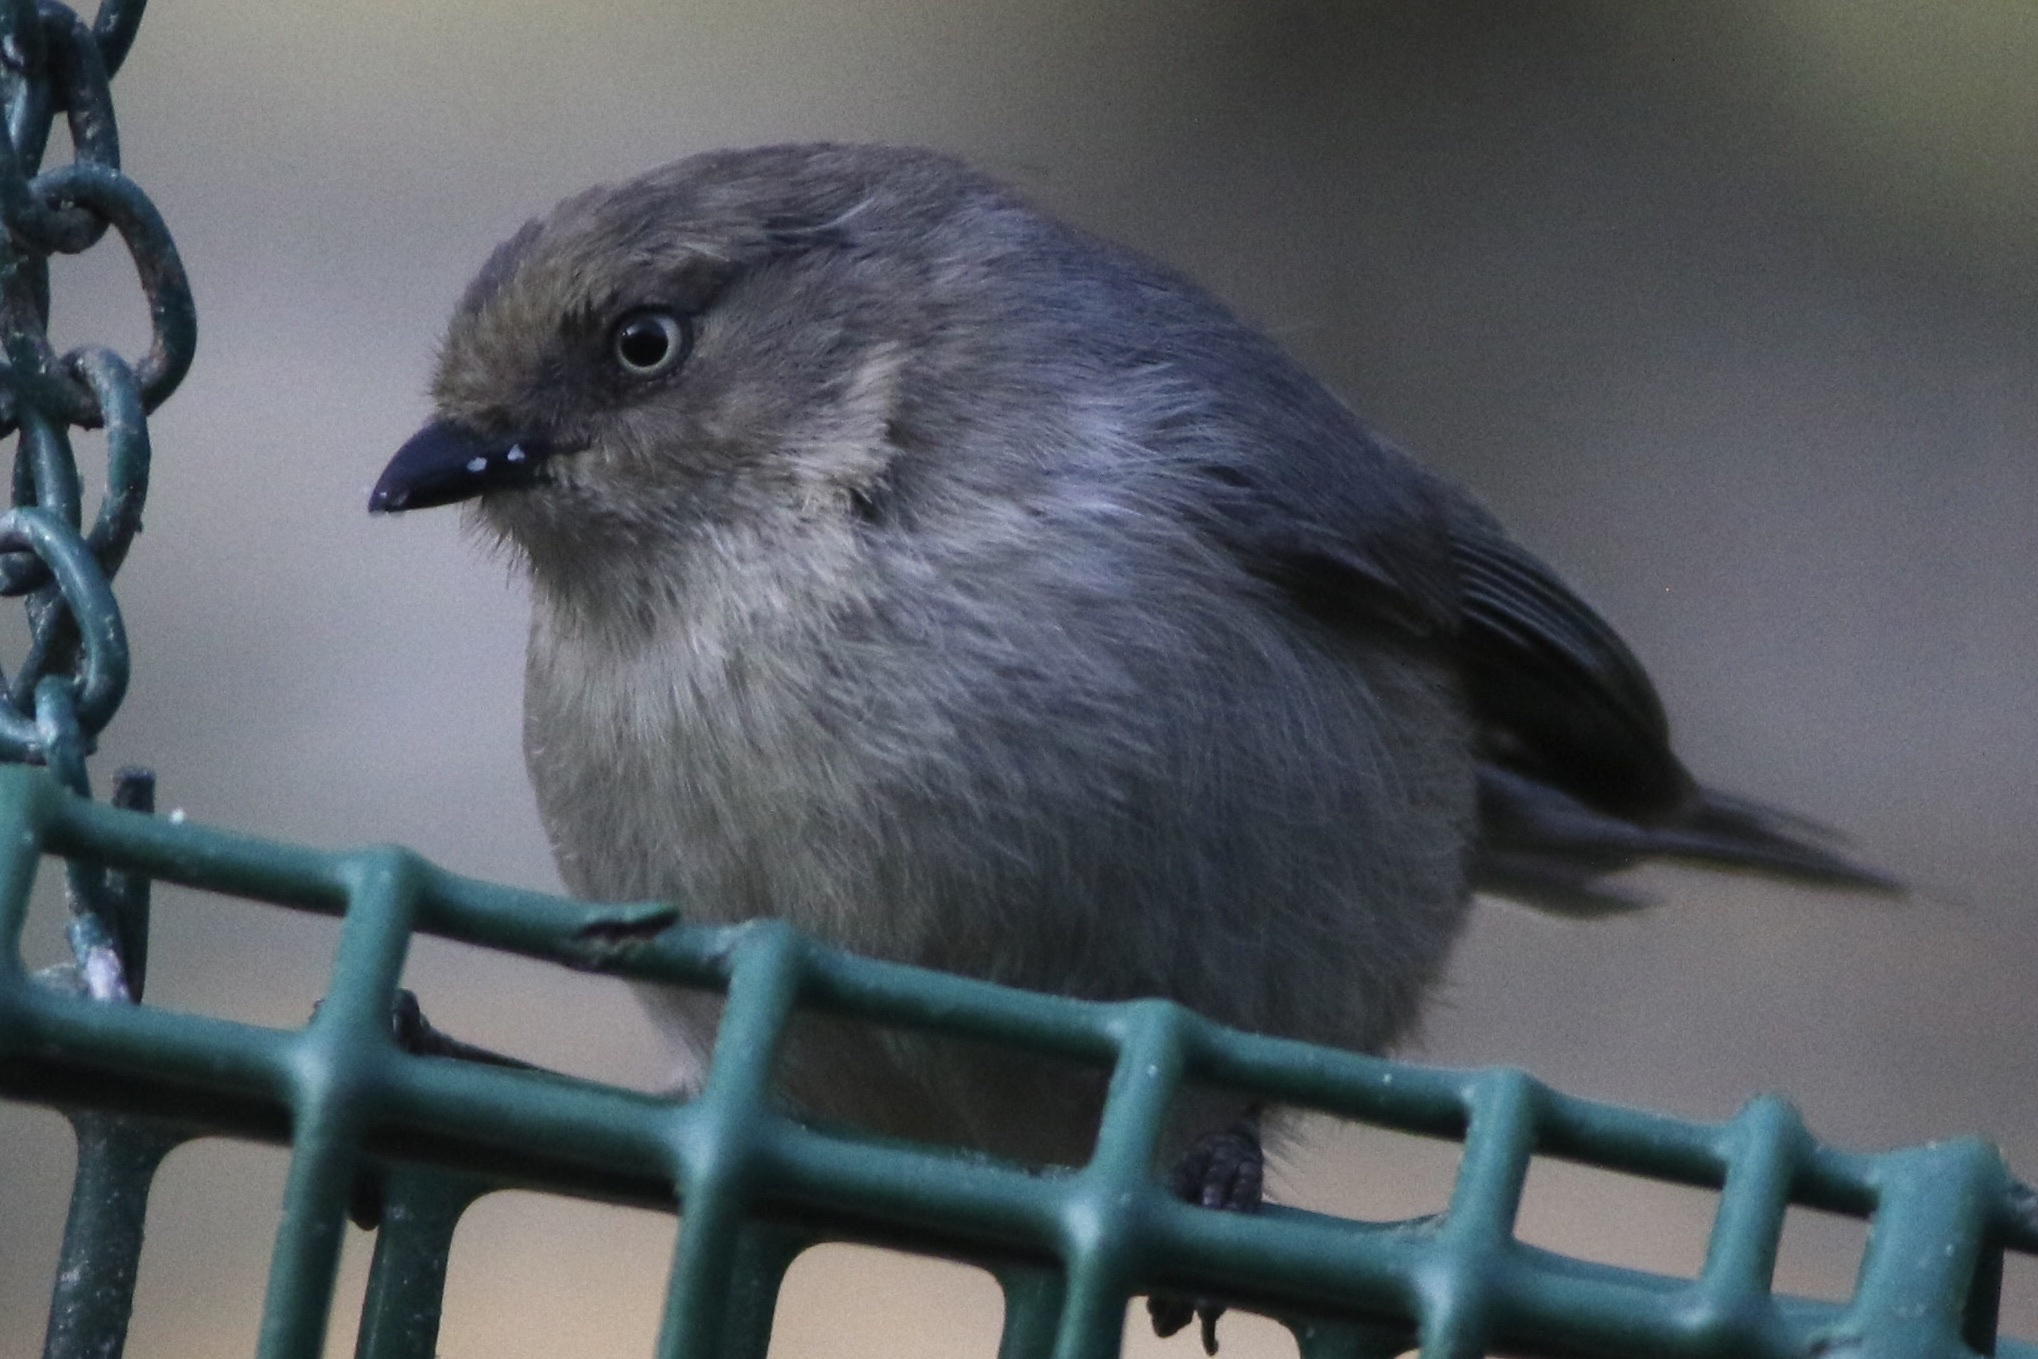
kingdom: Animalia
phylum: Chordata
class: Aves
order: Passeriformes
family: Aegithalidae
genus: Psaltriparus
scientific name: Psaltriparus minimus
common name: American bushtit
